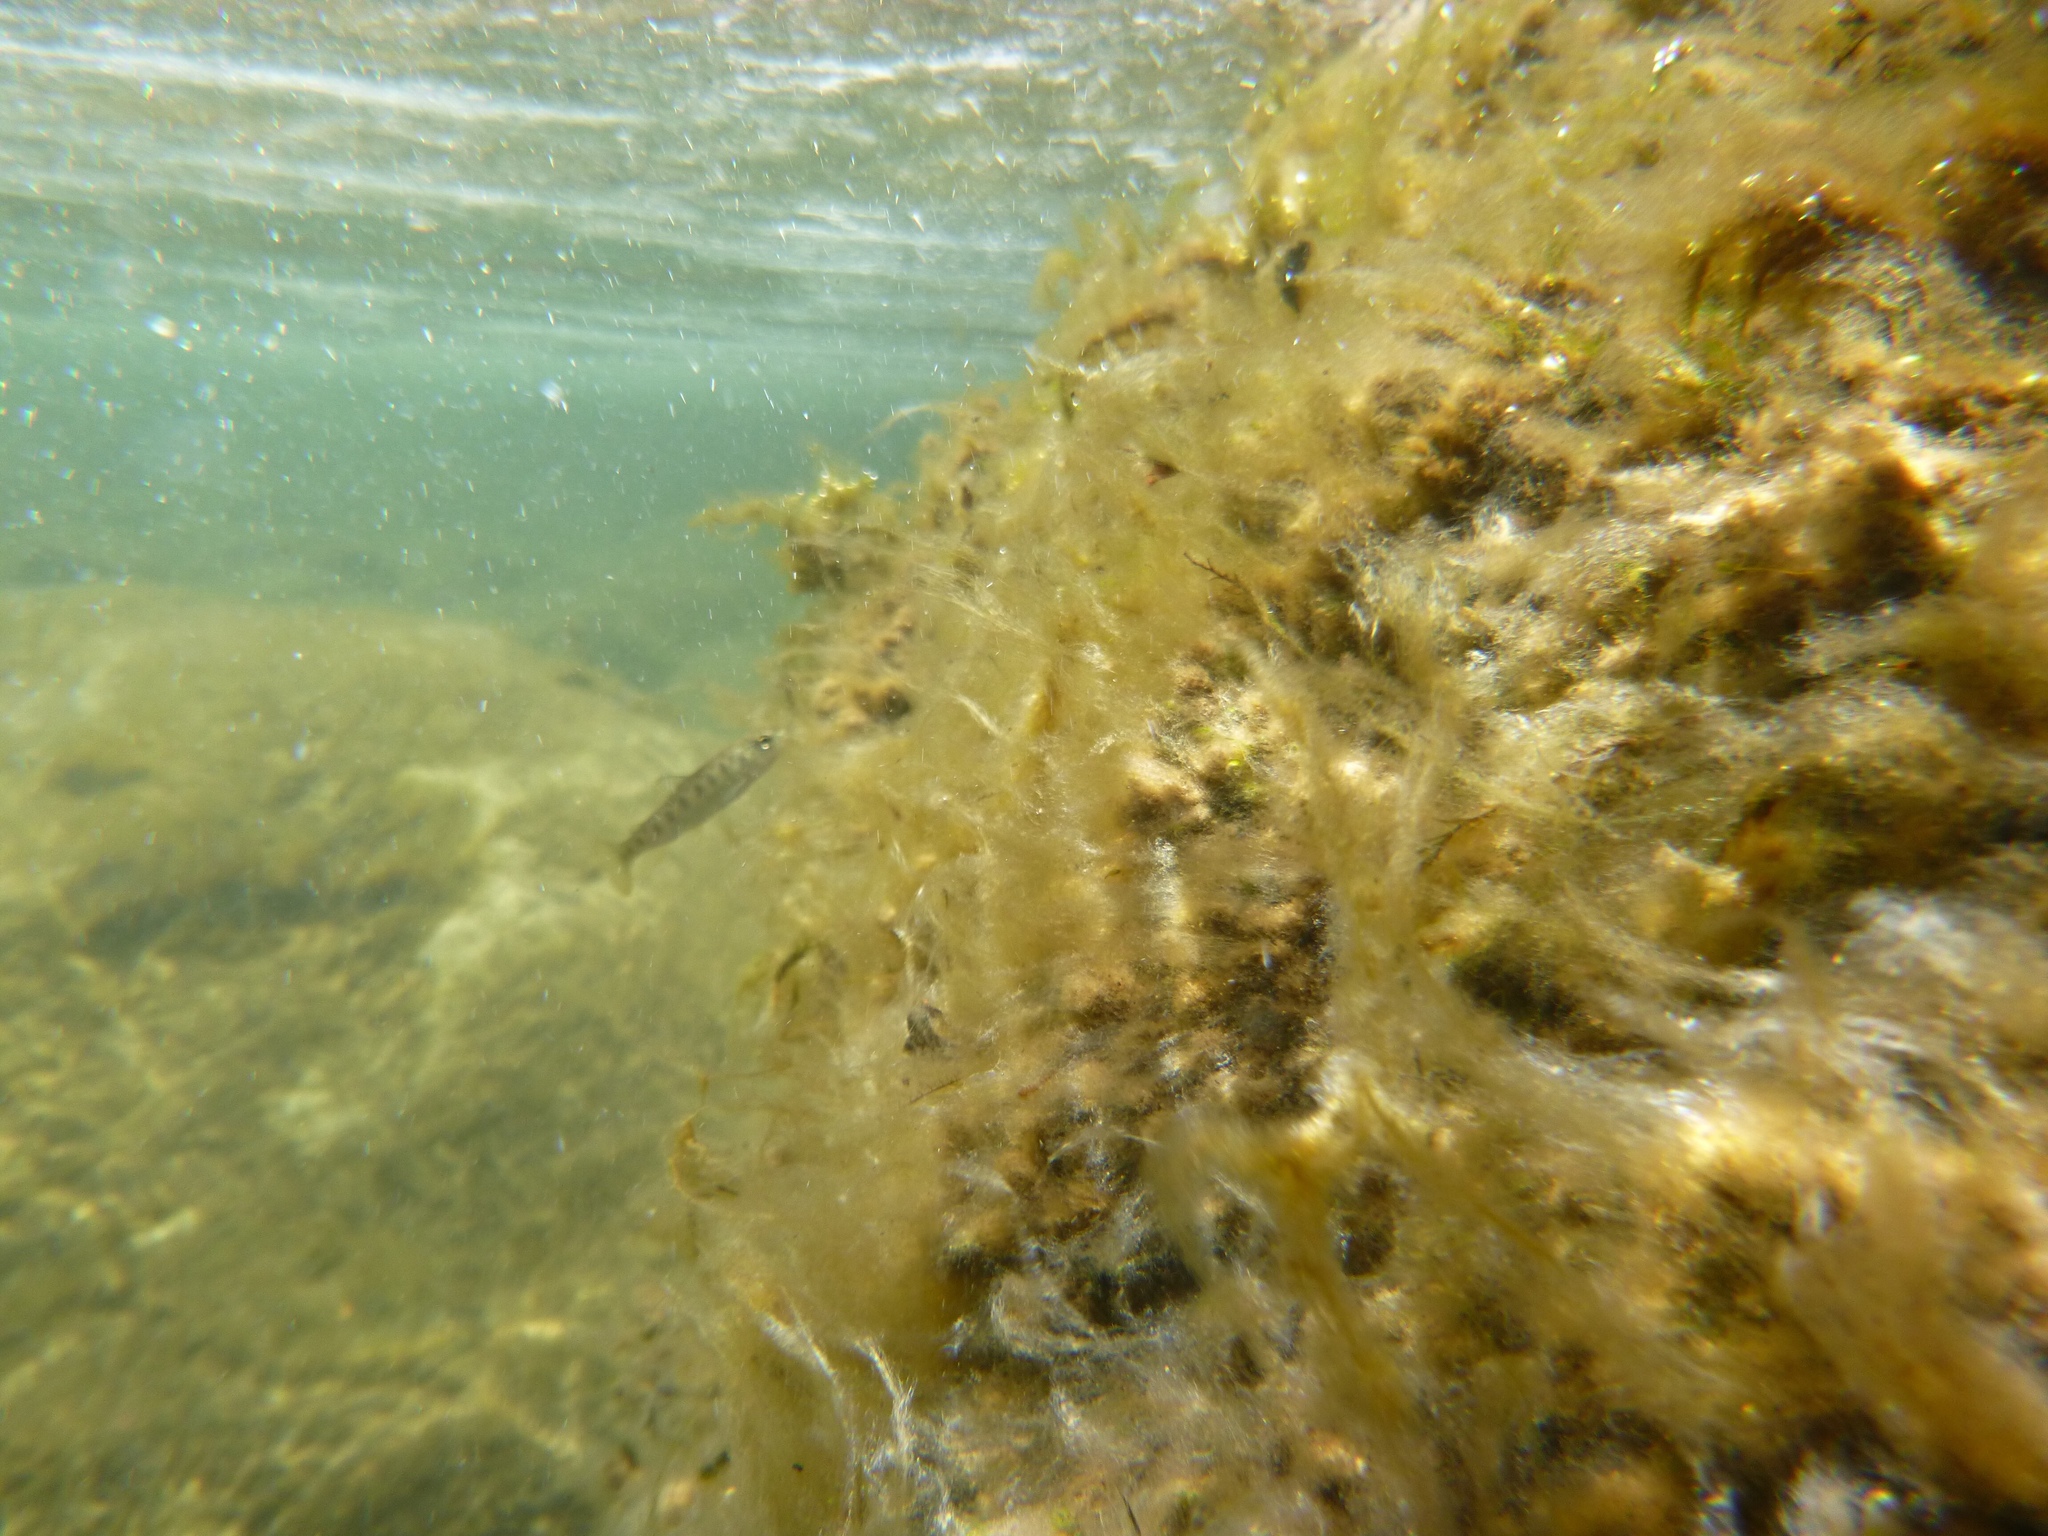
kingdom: Animalia
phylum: Chordata
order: Salmoniformes
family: Salmonidae
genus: Oncorhynchus
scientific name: Oncorhynchus mykiss
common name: Rainbow trout
